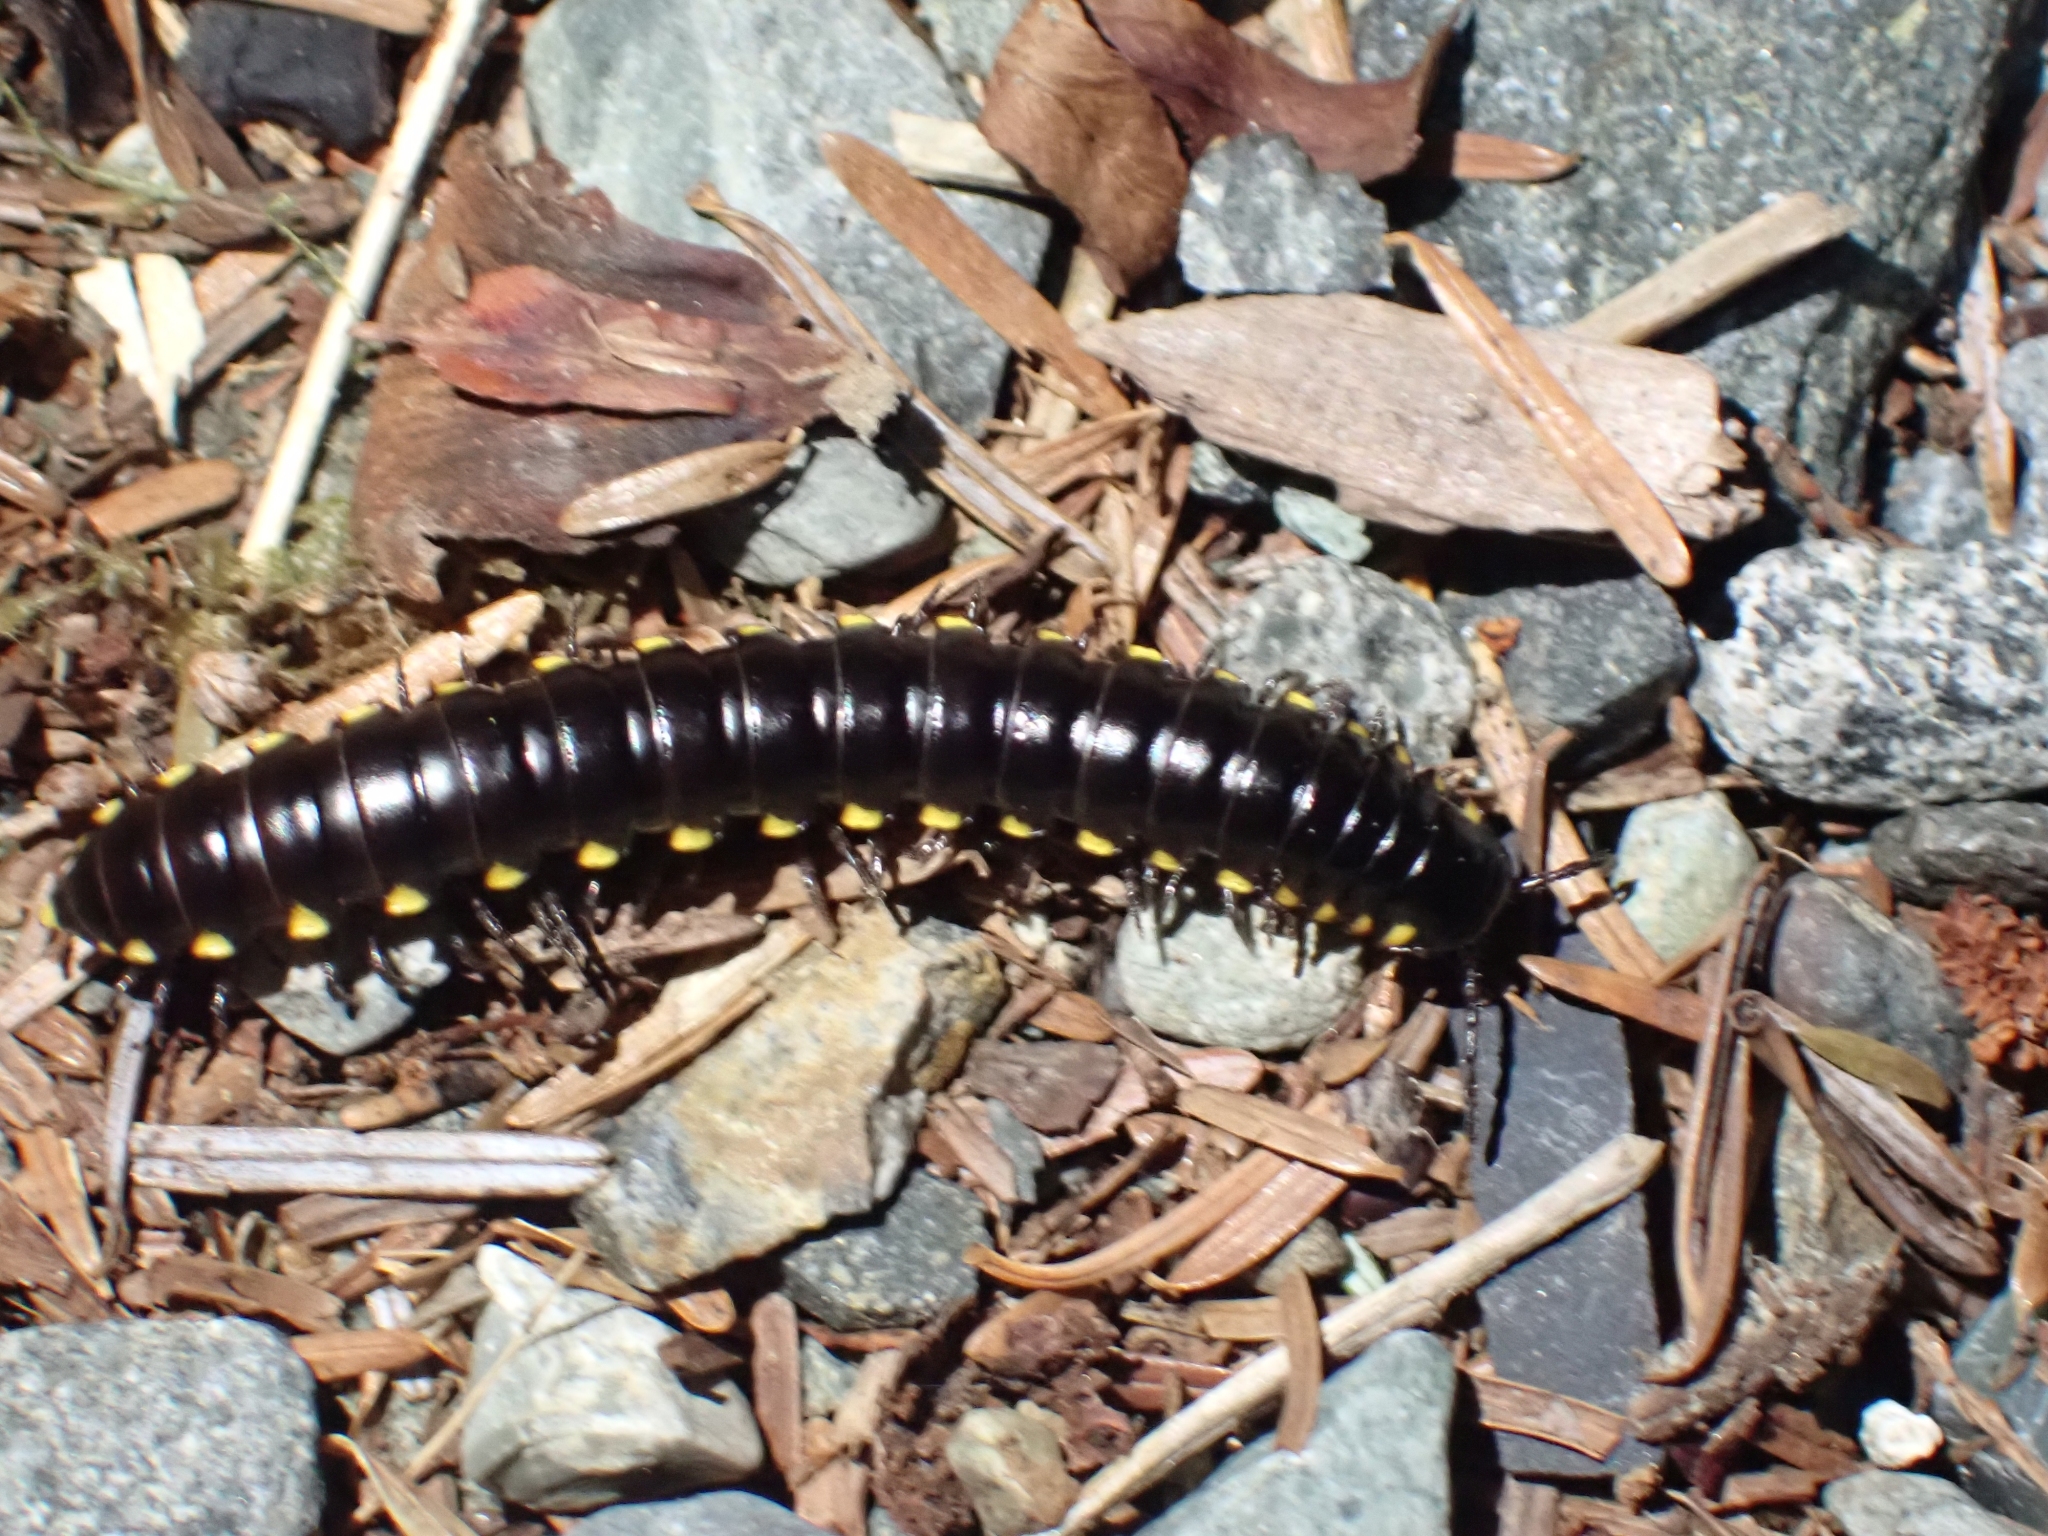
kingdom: Animalia
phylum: Arthropoda
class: Diplopoda
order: Polydesmida
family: Xystodesmidae
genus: Harpaphe
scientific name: Harpaphe haydeniana
